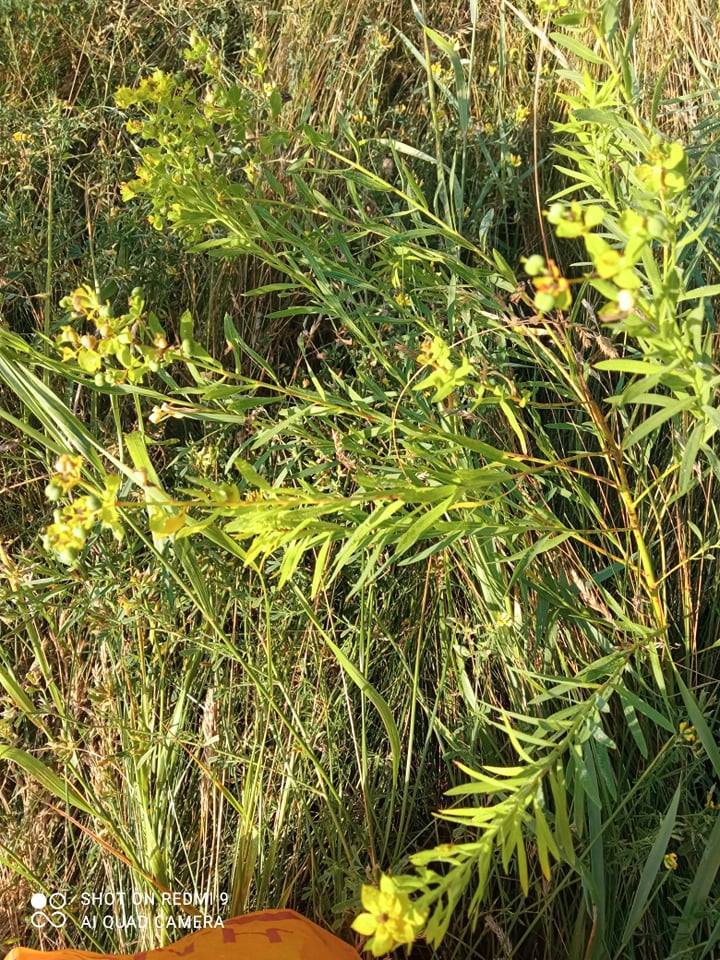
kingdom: Plantae
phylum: Tracheophyta
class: Magnoliopsida
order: Malpighiales
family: Euphorbiaceae
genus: Euphorbia
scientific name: Euphorbia saratoi
